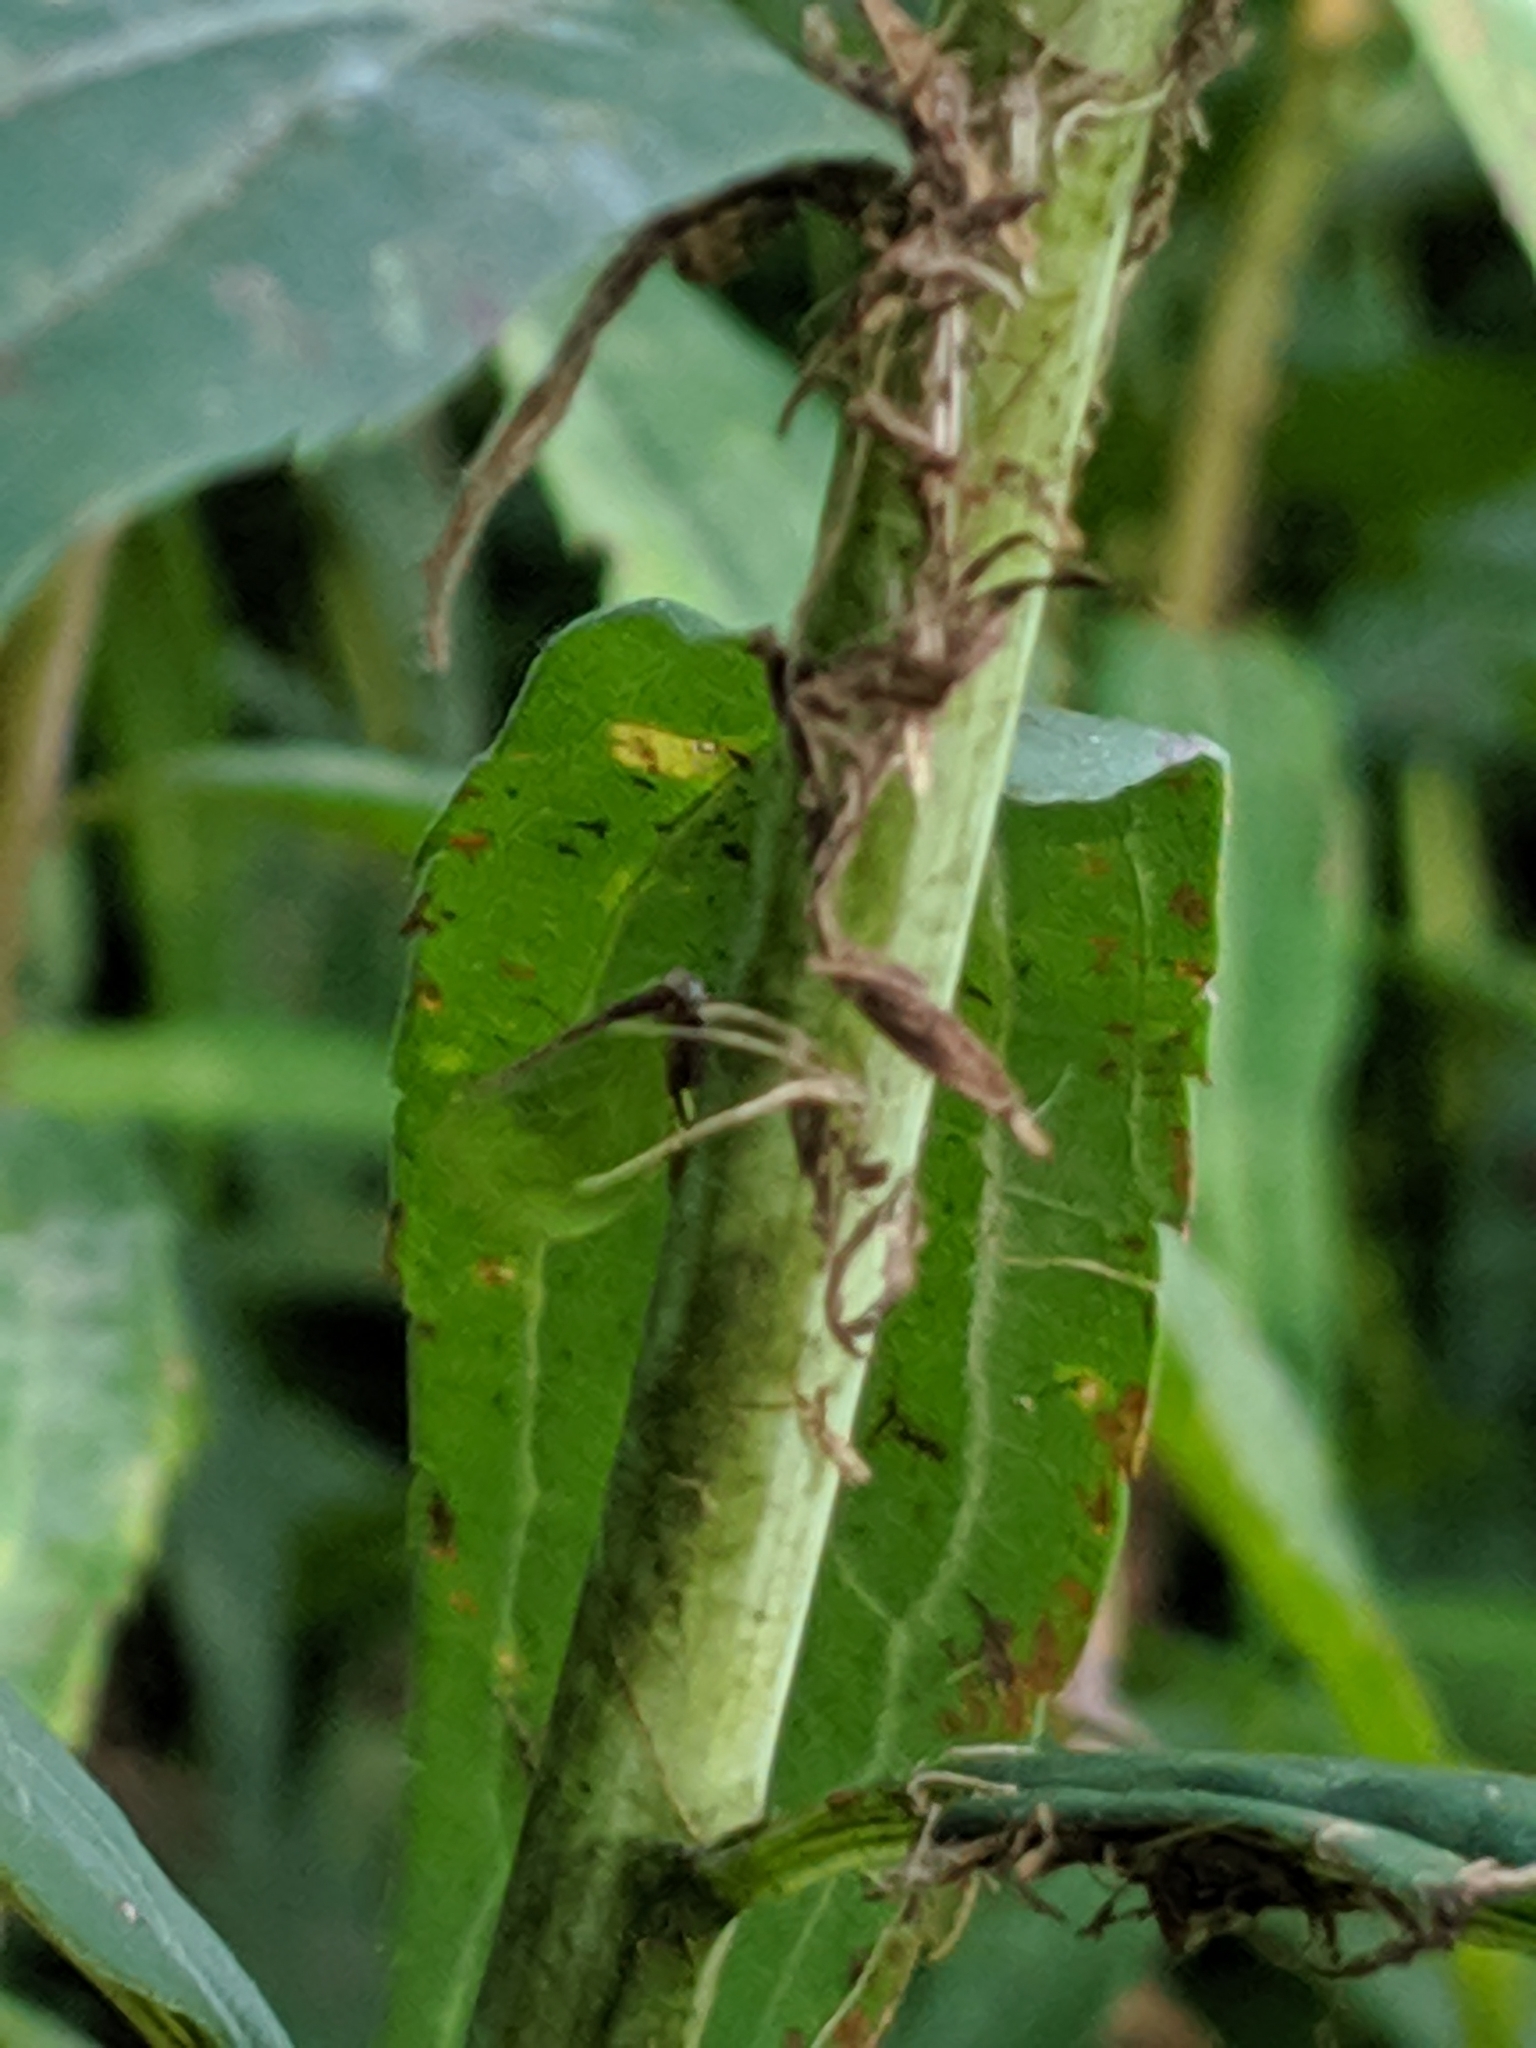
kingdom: Animalia
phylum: Arthropoda
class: Insecta
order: Hemiptera
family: Acanaloniidae
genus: Acanalonia
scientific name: Acanalonia bivittata
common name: Two-striped planthopper
